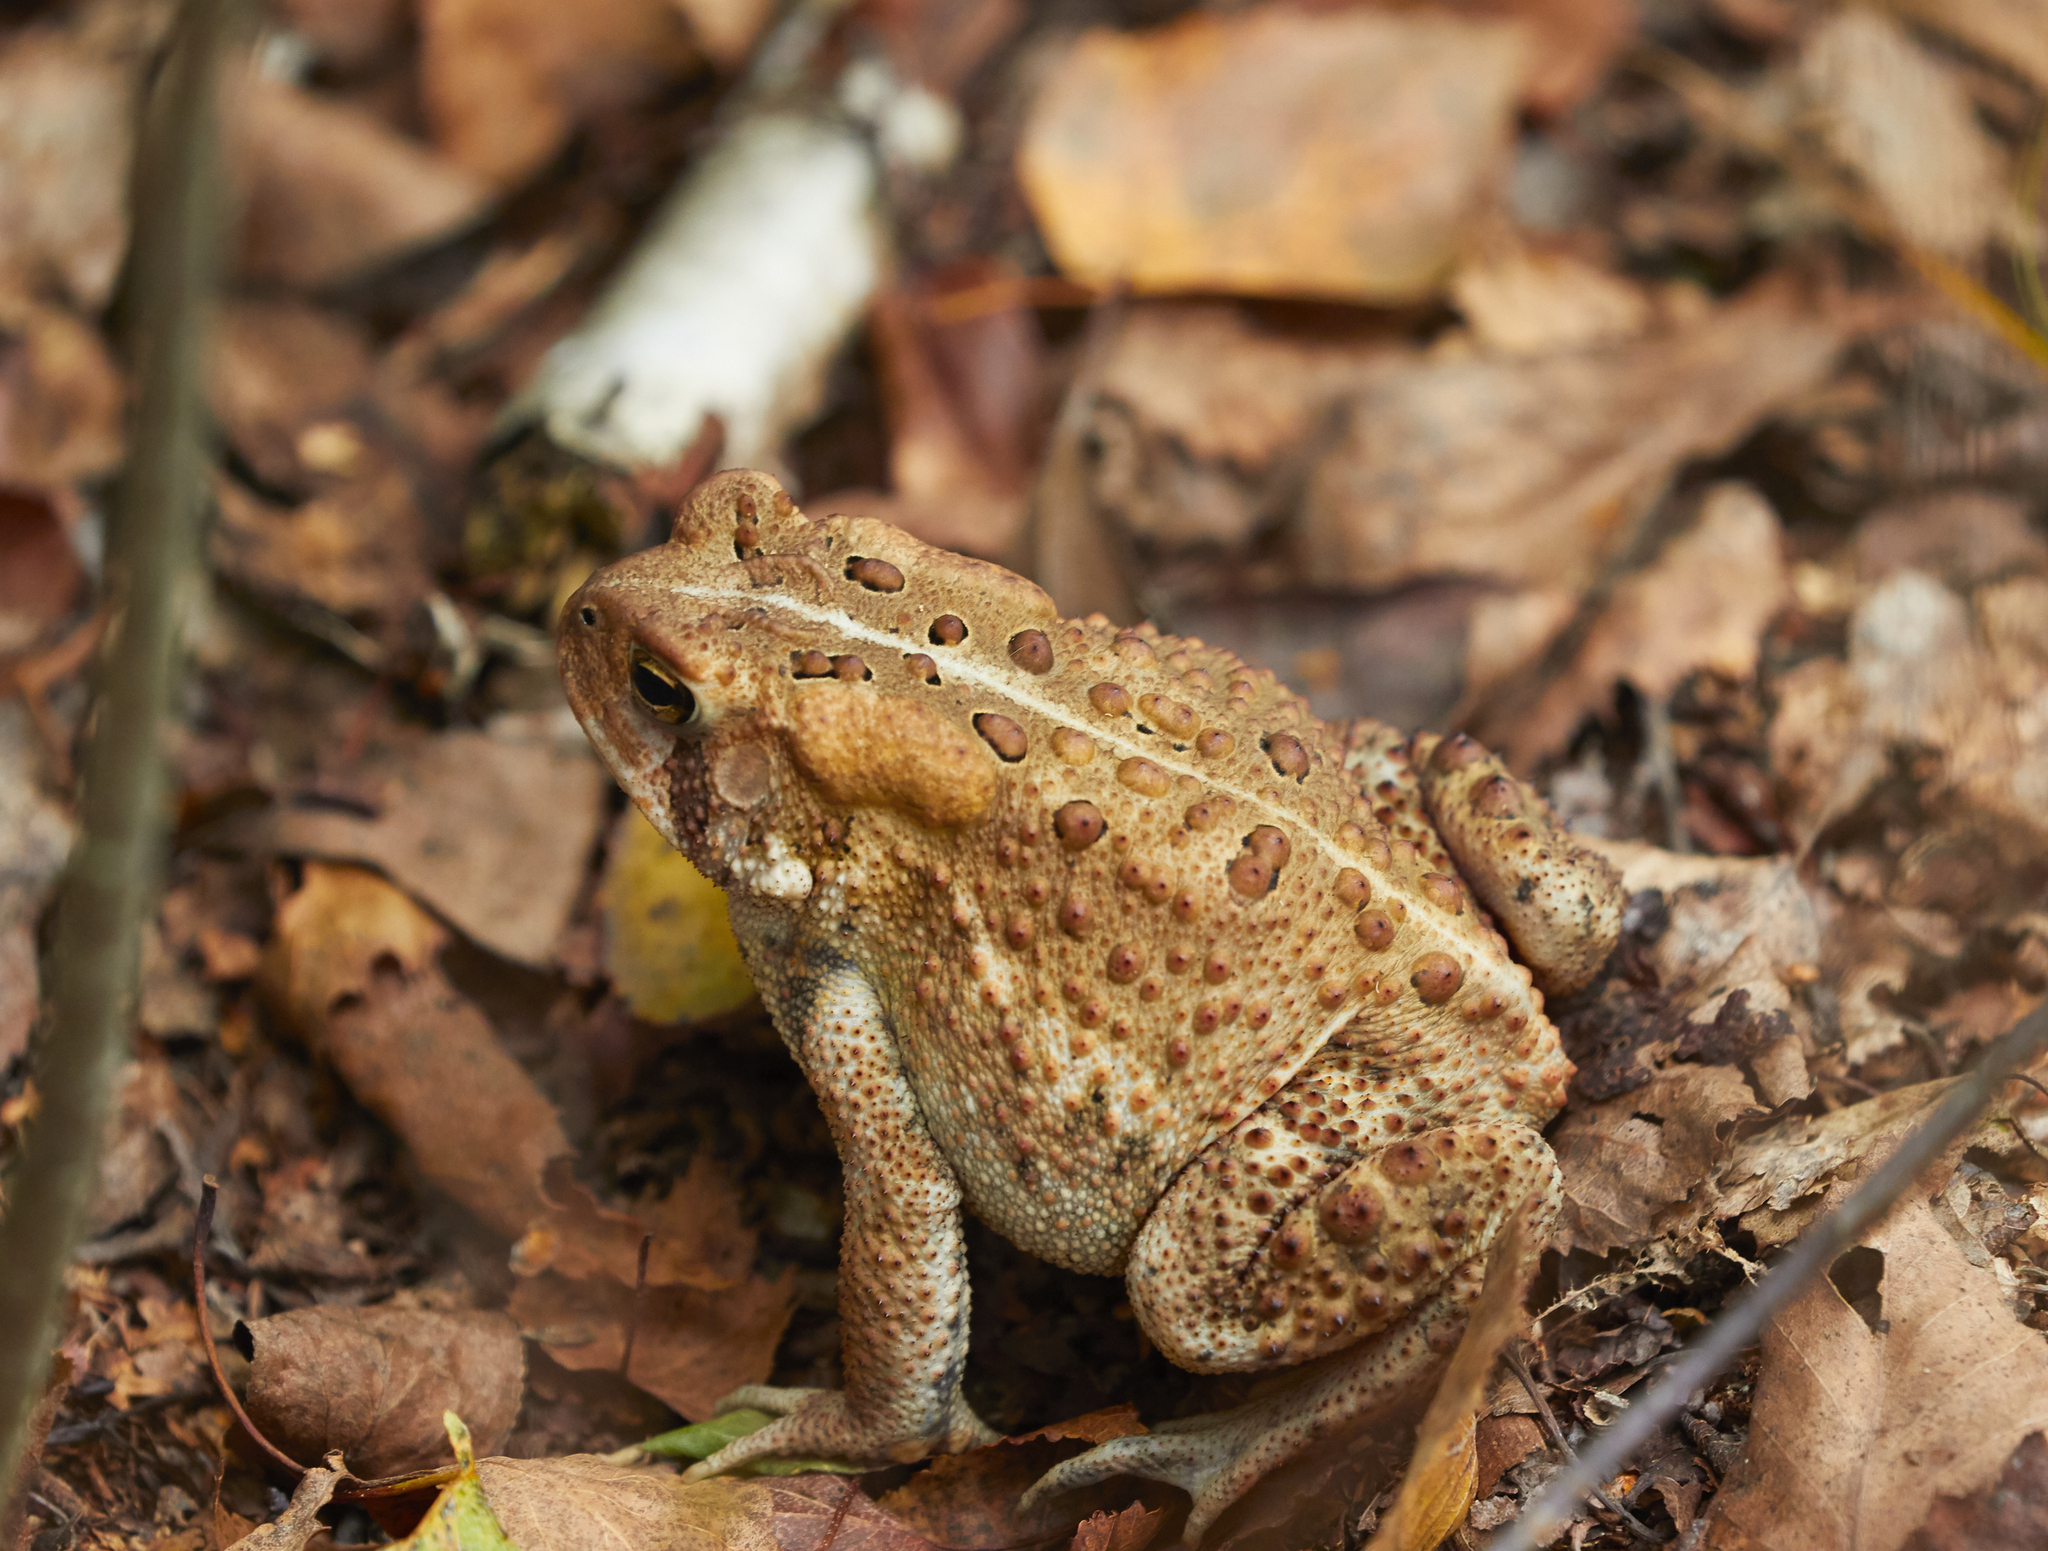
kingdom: Animalia
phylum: Chordata
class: Amphibia
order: Anura
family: Bufonidae
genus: Anaxyrus
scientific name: Anaxyrus americanus
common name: American toad
